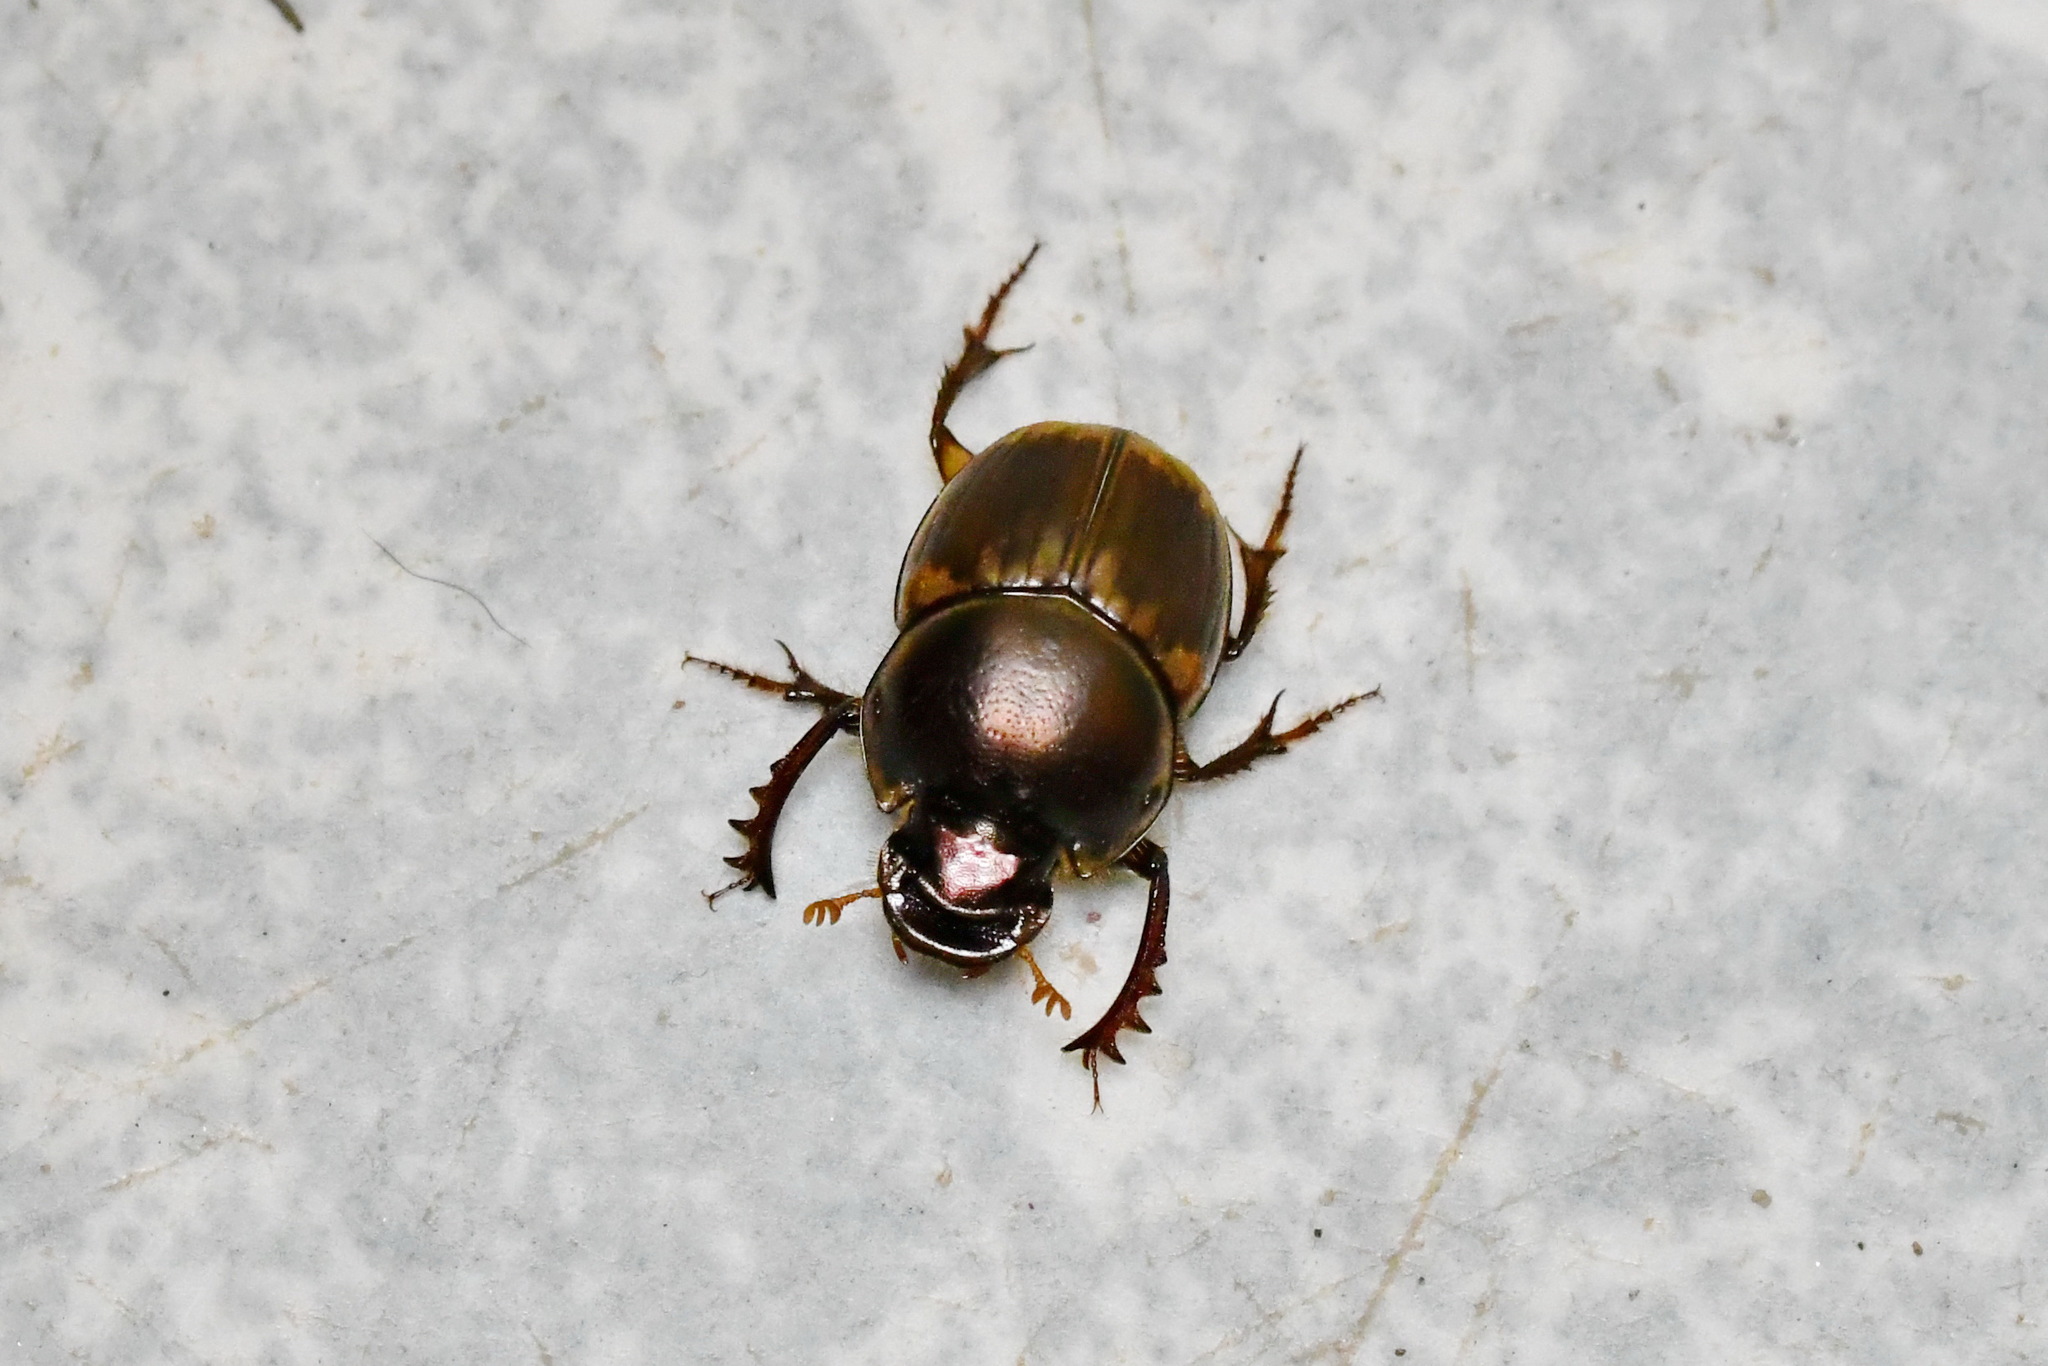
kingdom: Animalia
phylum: Arthropoda
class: Insecta
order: Coleoptera
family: Scarabaeidae
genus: Digitonthophagus
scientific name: Digitonthophagus gazella
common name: Brown dung beetle
